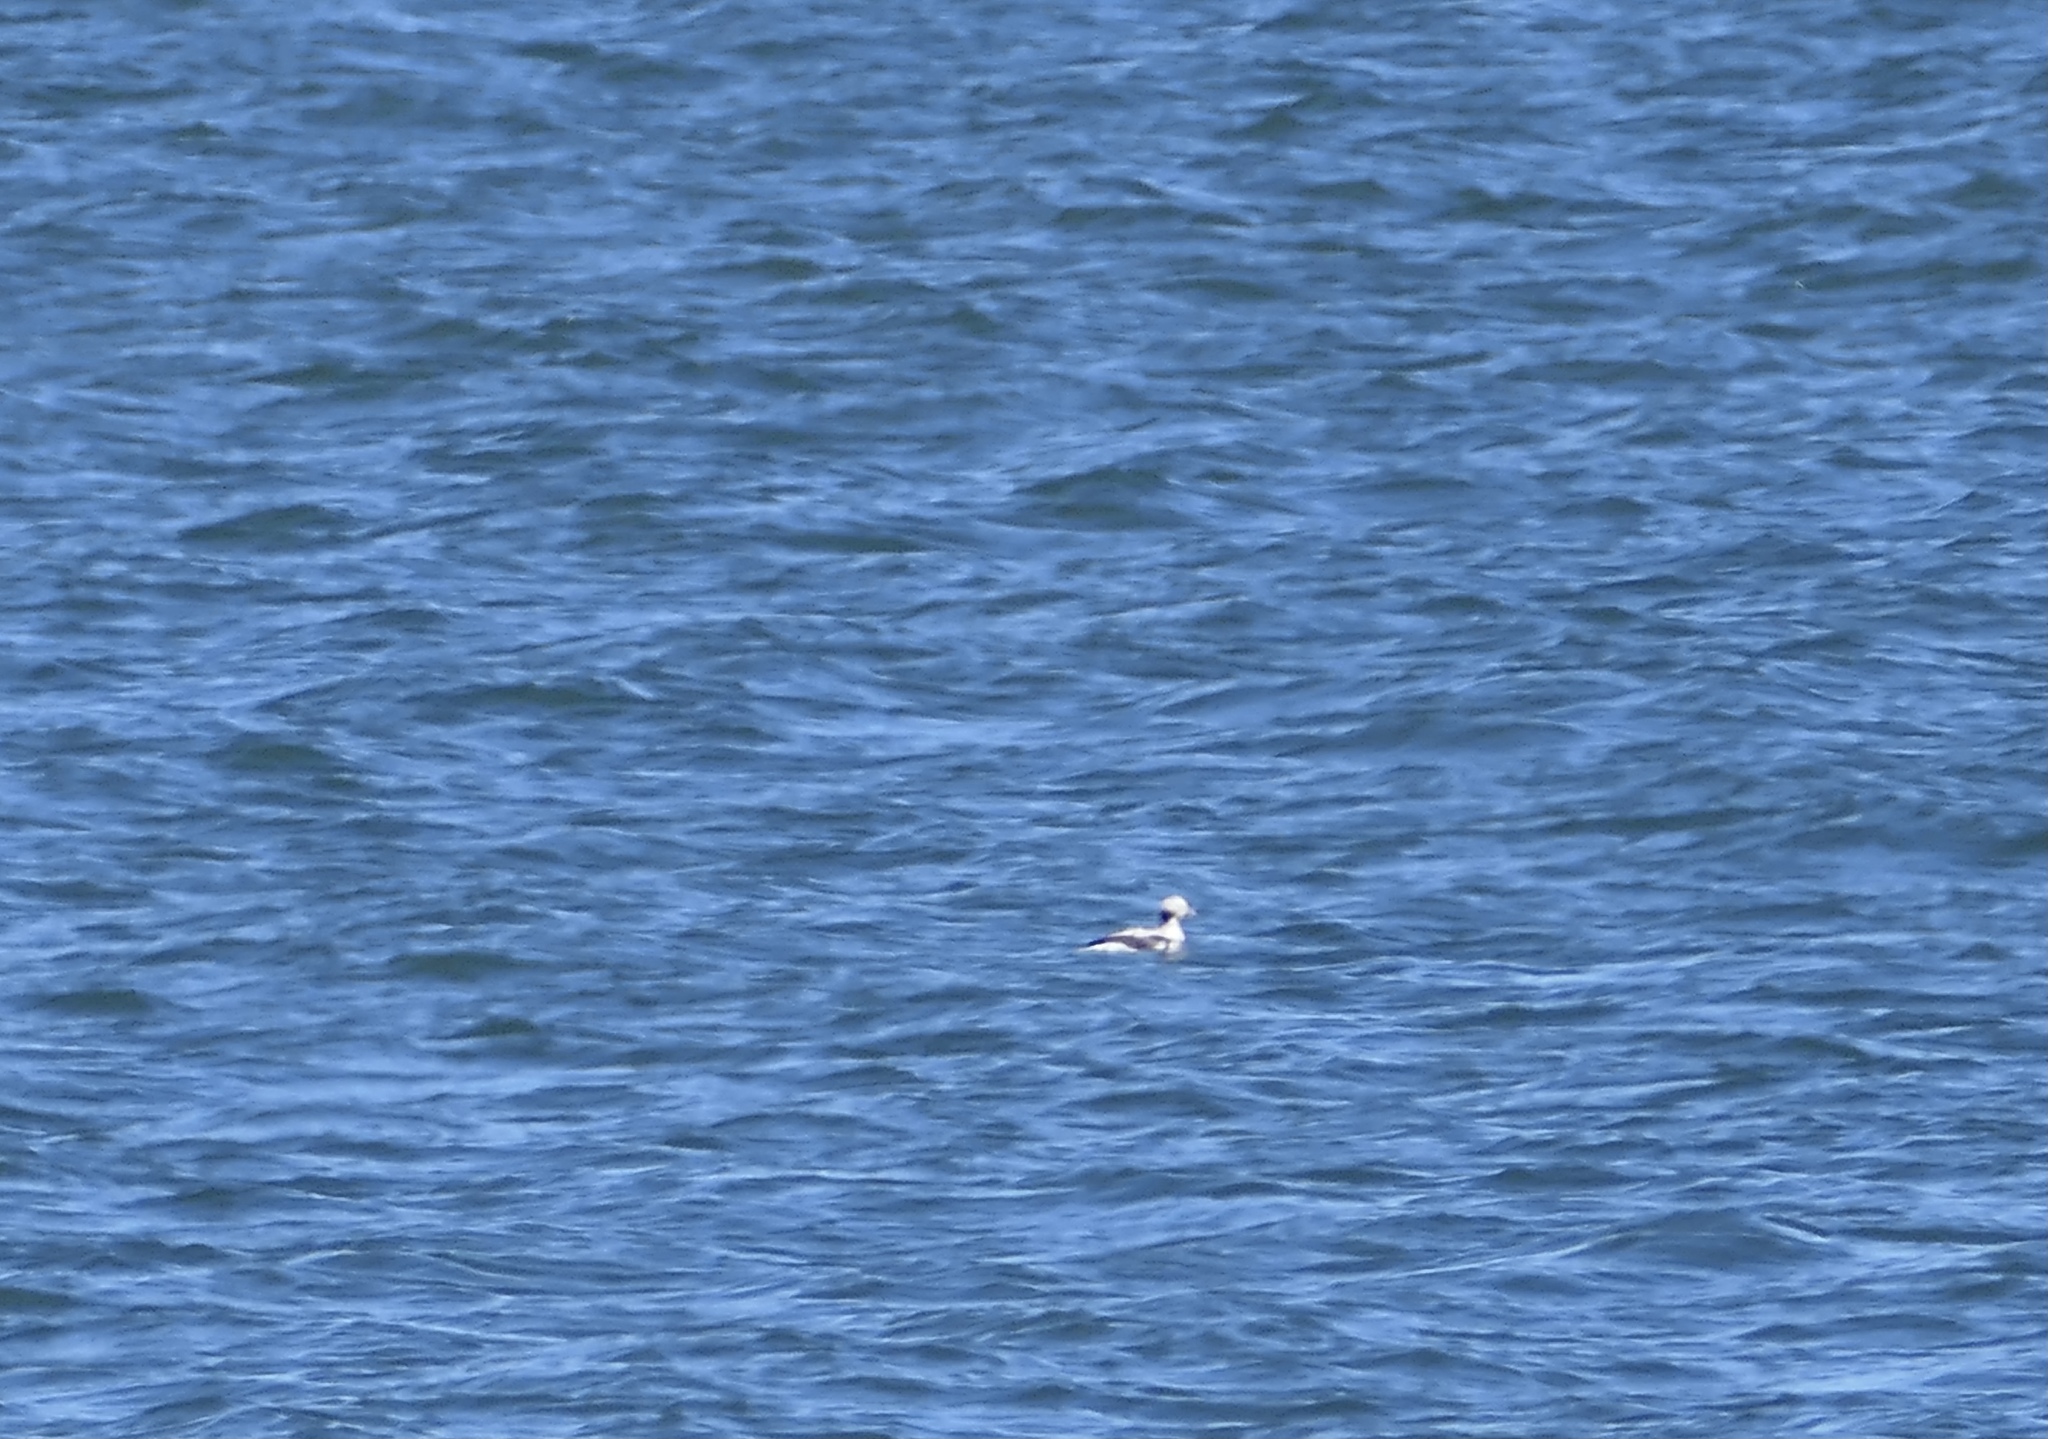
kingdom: Animalia
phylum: Chordata
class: Aves
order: Anseriformes
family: Anatidae
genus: Clangula
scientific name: Clangula hyemalis
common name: Long-tailed duck
